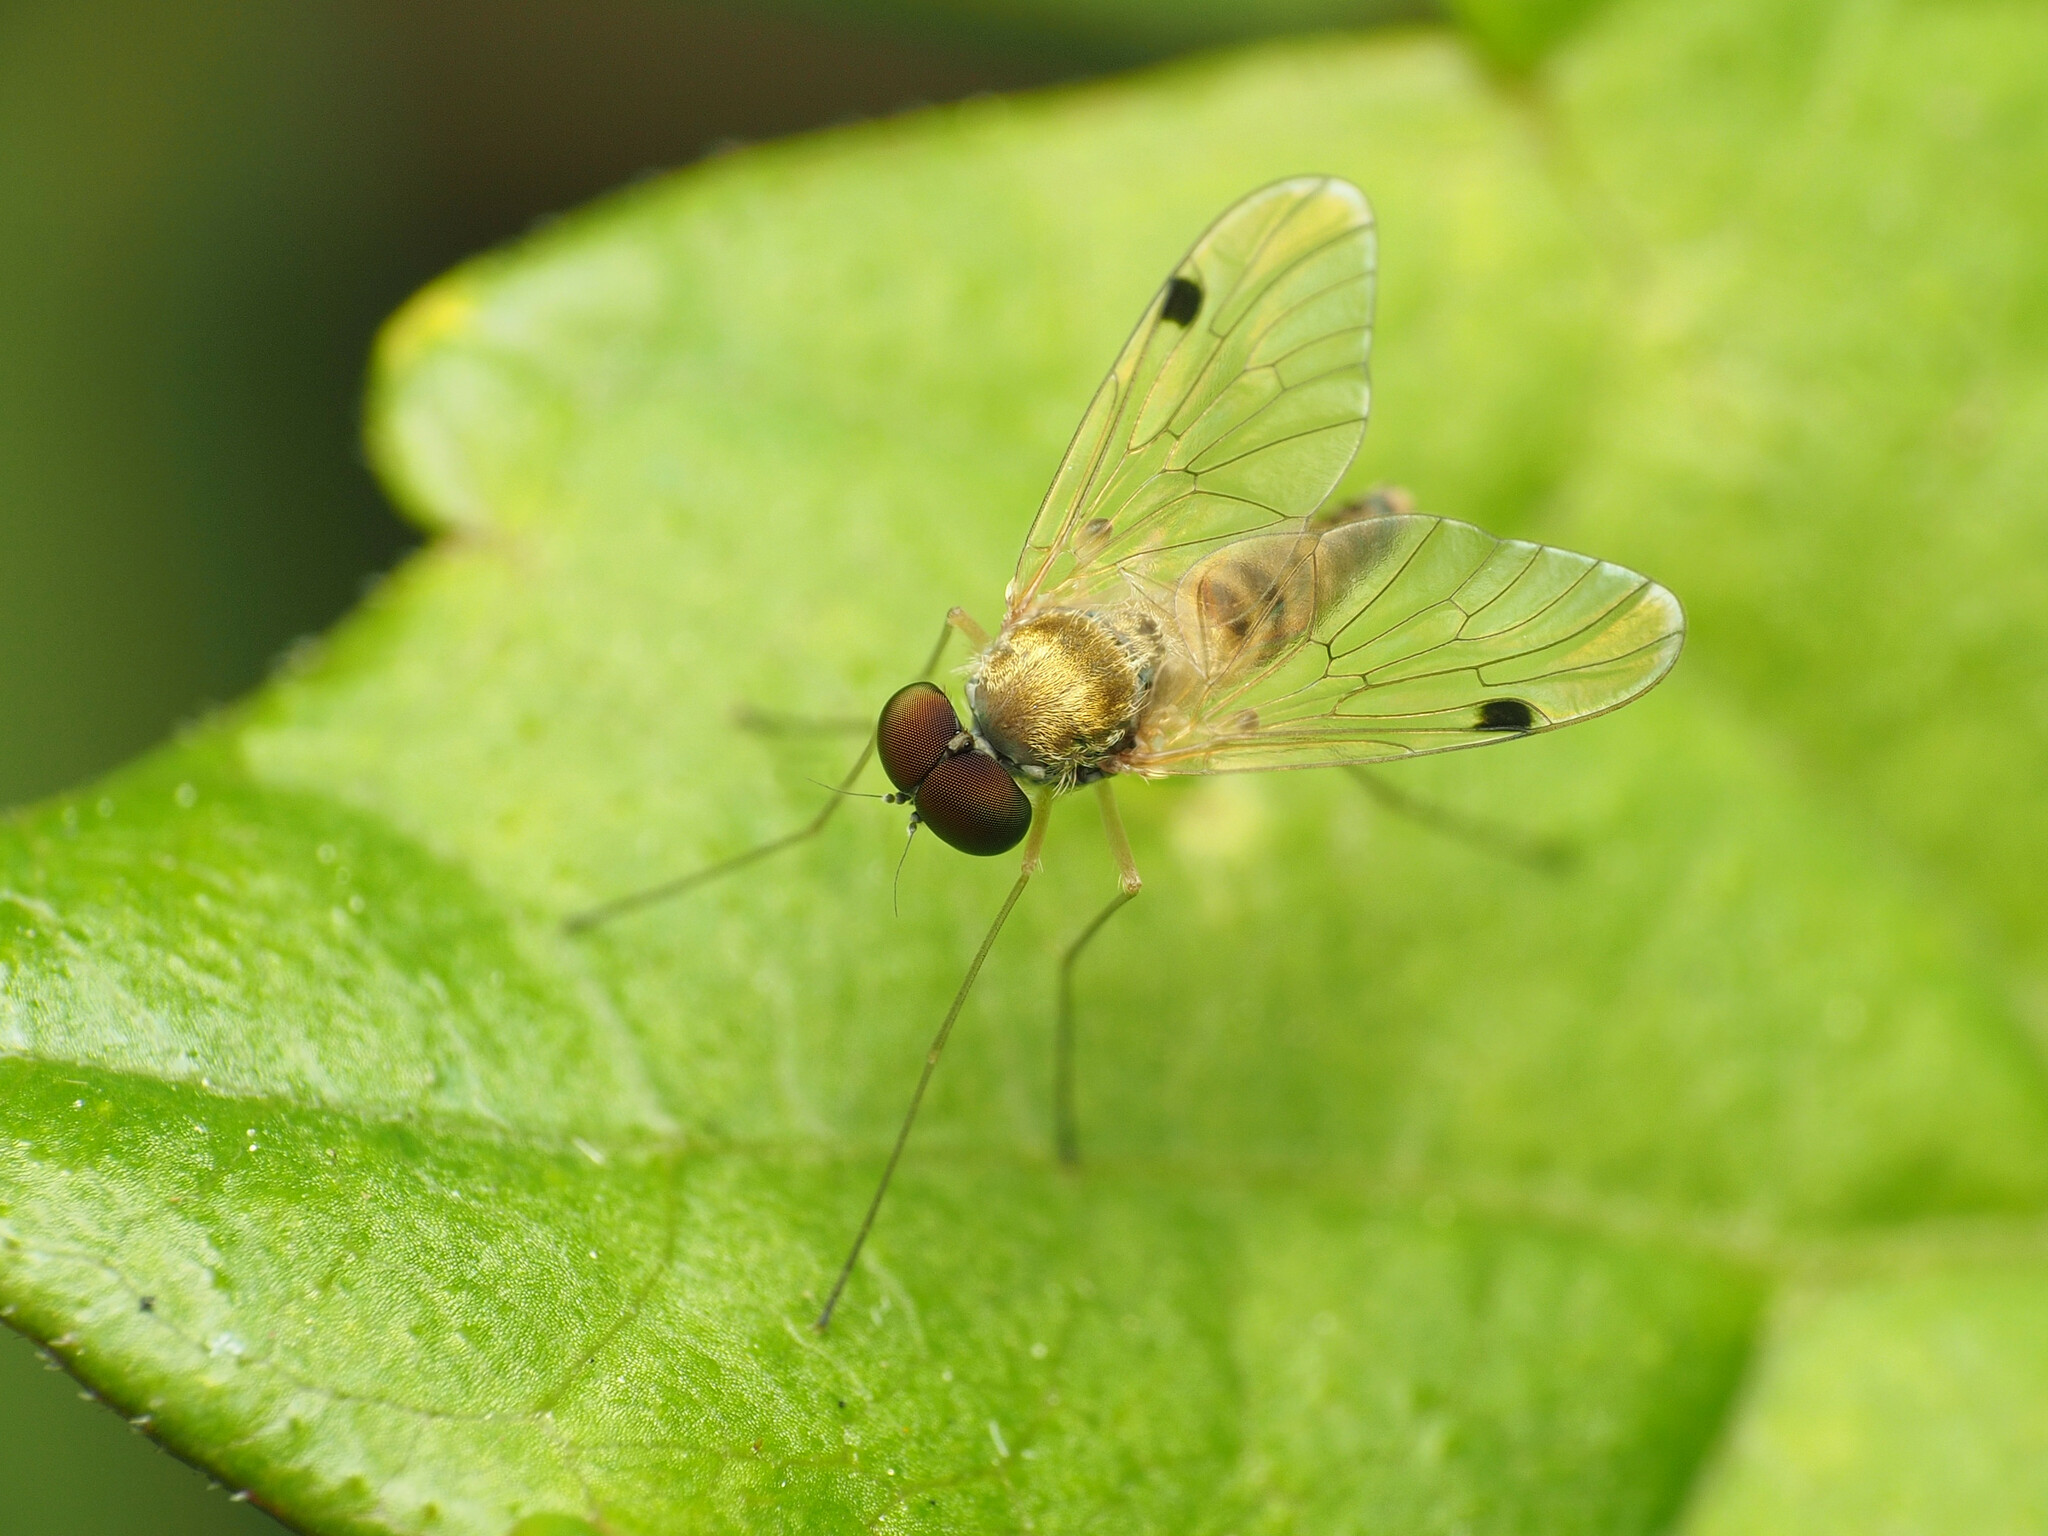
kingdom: Animalia
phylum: Arthropoda
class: Insecta
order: Diptera
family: Rhagionidae
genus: Chrysopilus
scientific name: Chrysopilus modestus
